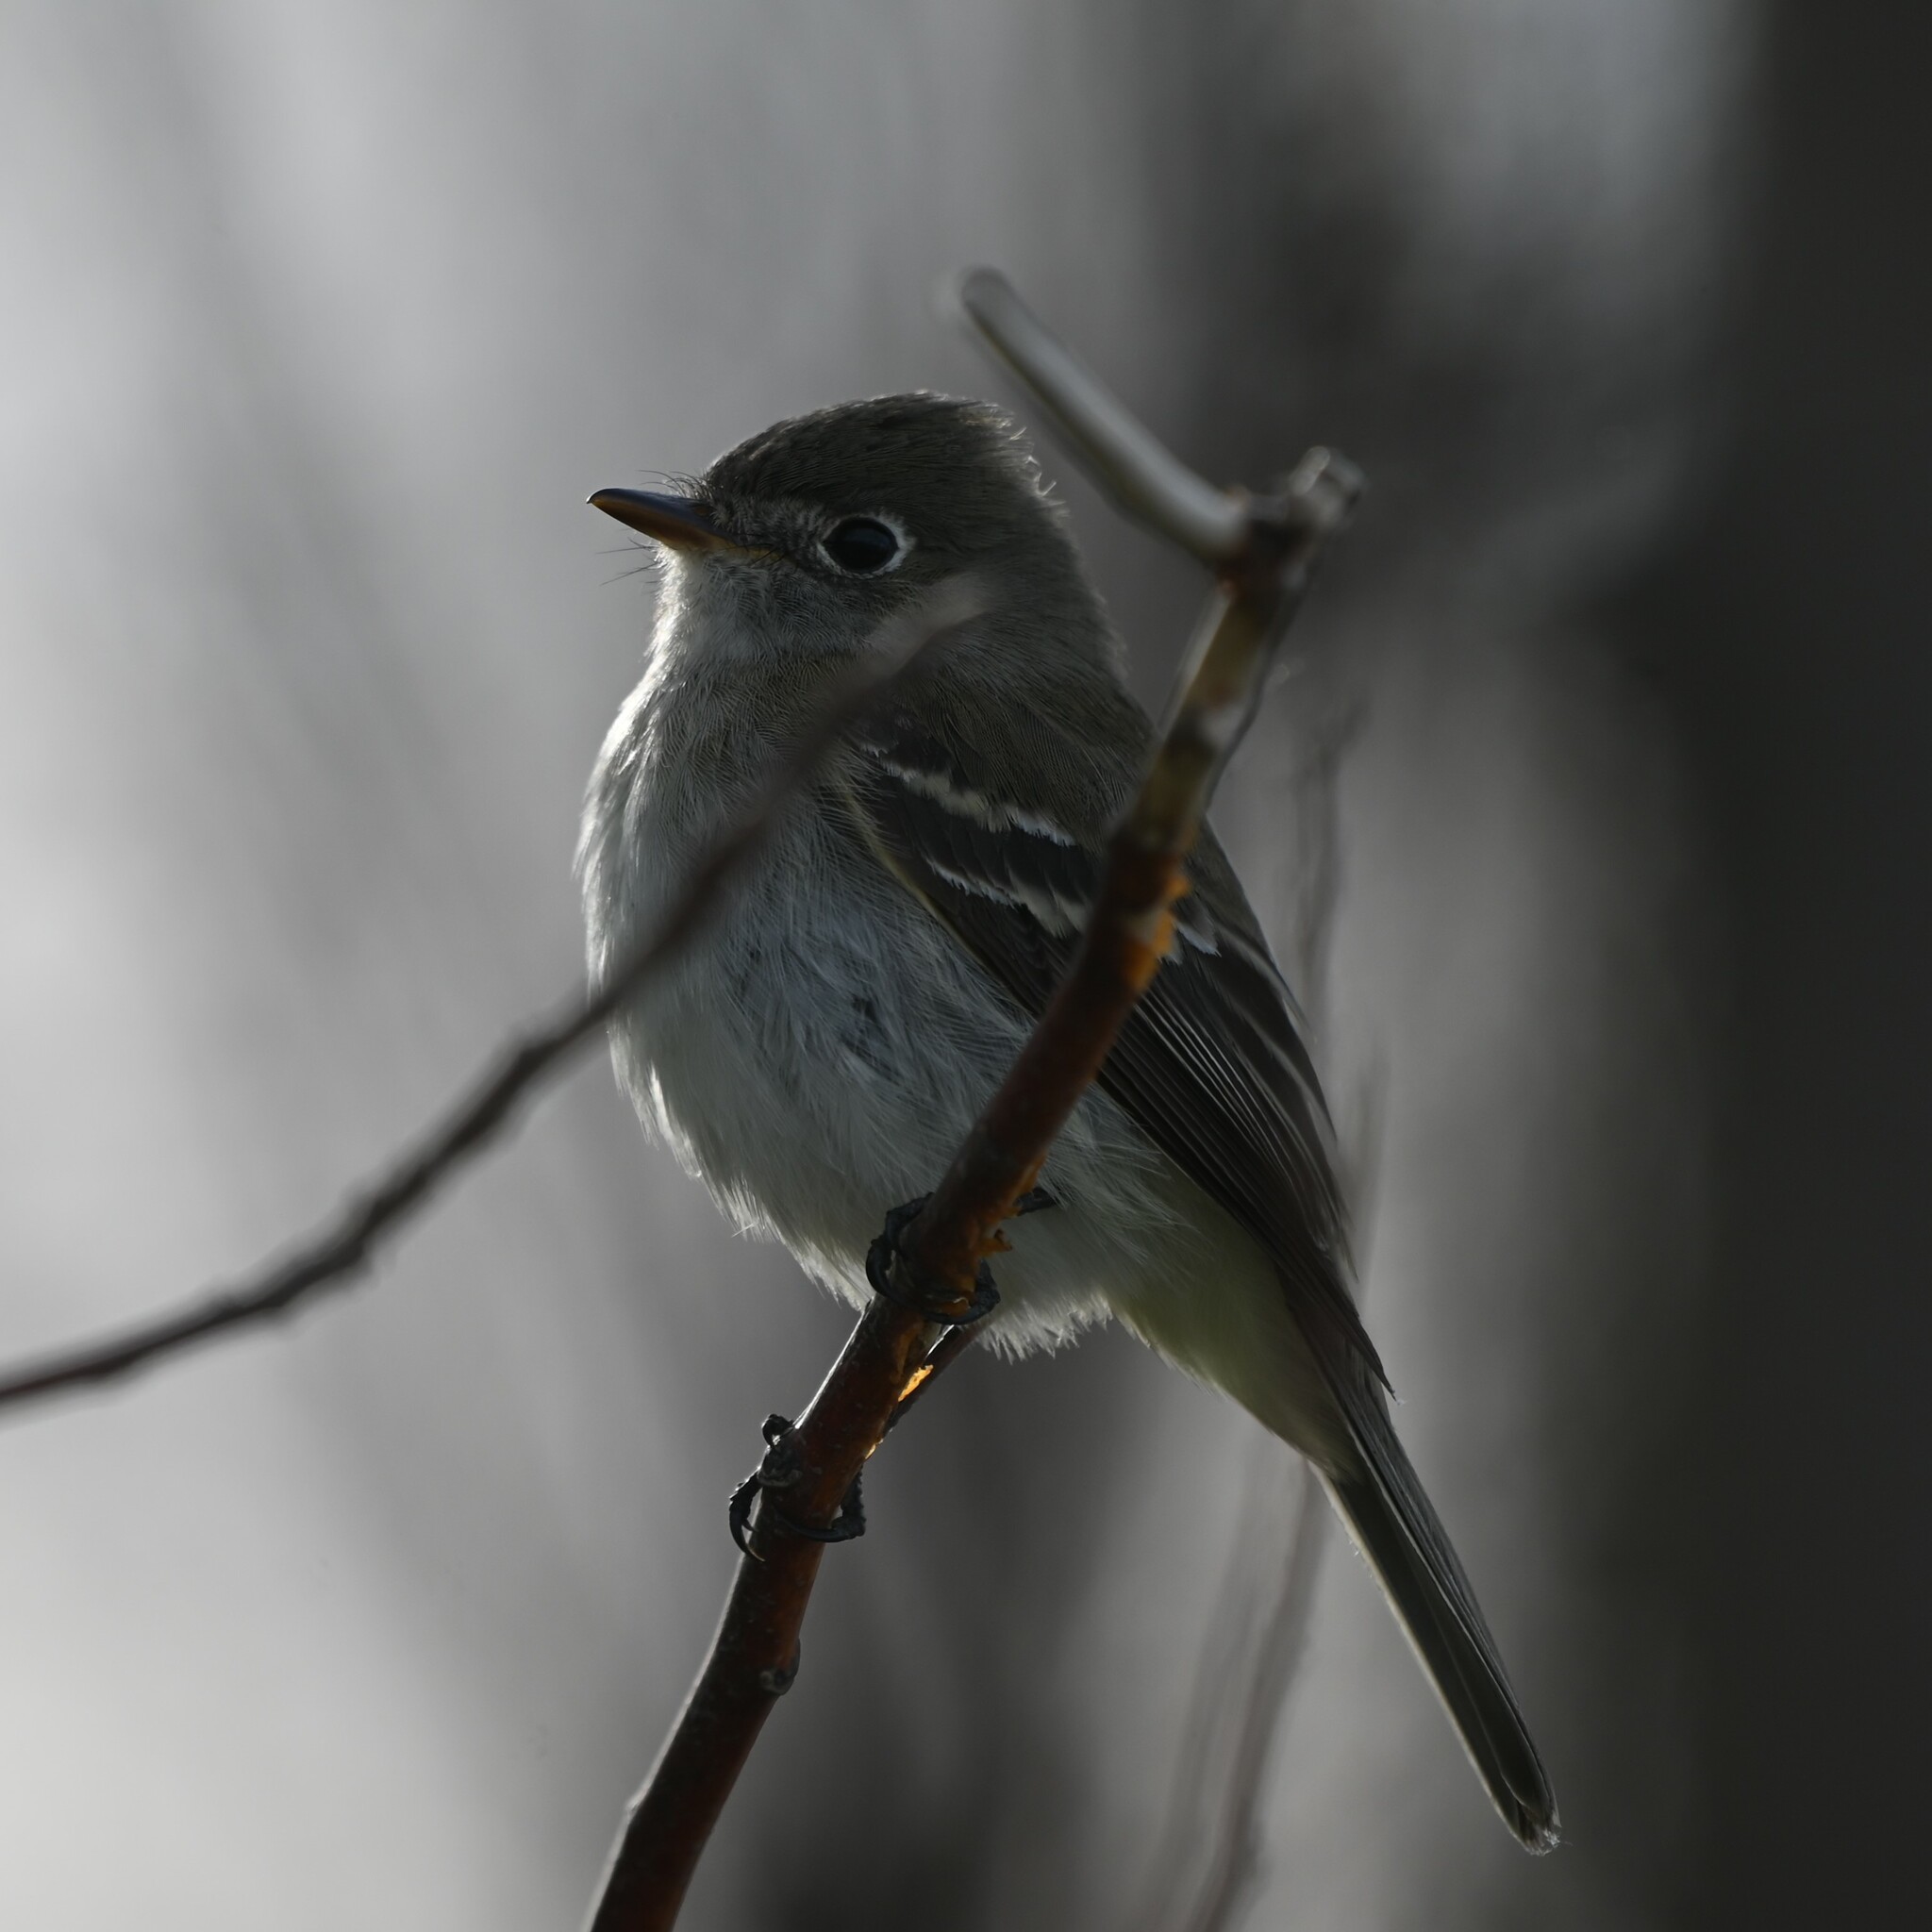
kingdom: Animalia
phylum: Chordata
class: Aves
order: Passeriformes
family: Tyrannidae
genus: Empidonax
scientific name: Empidonax minimus
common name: Least flycatcher
